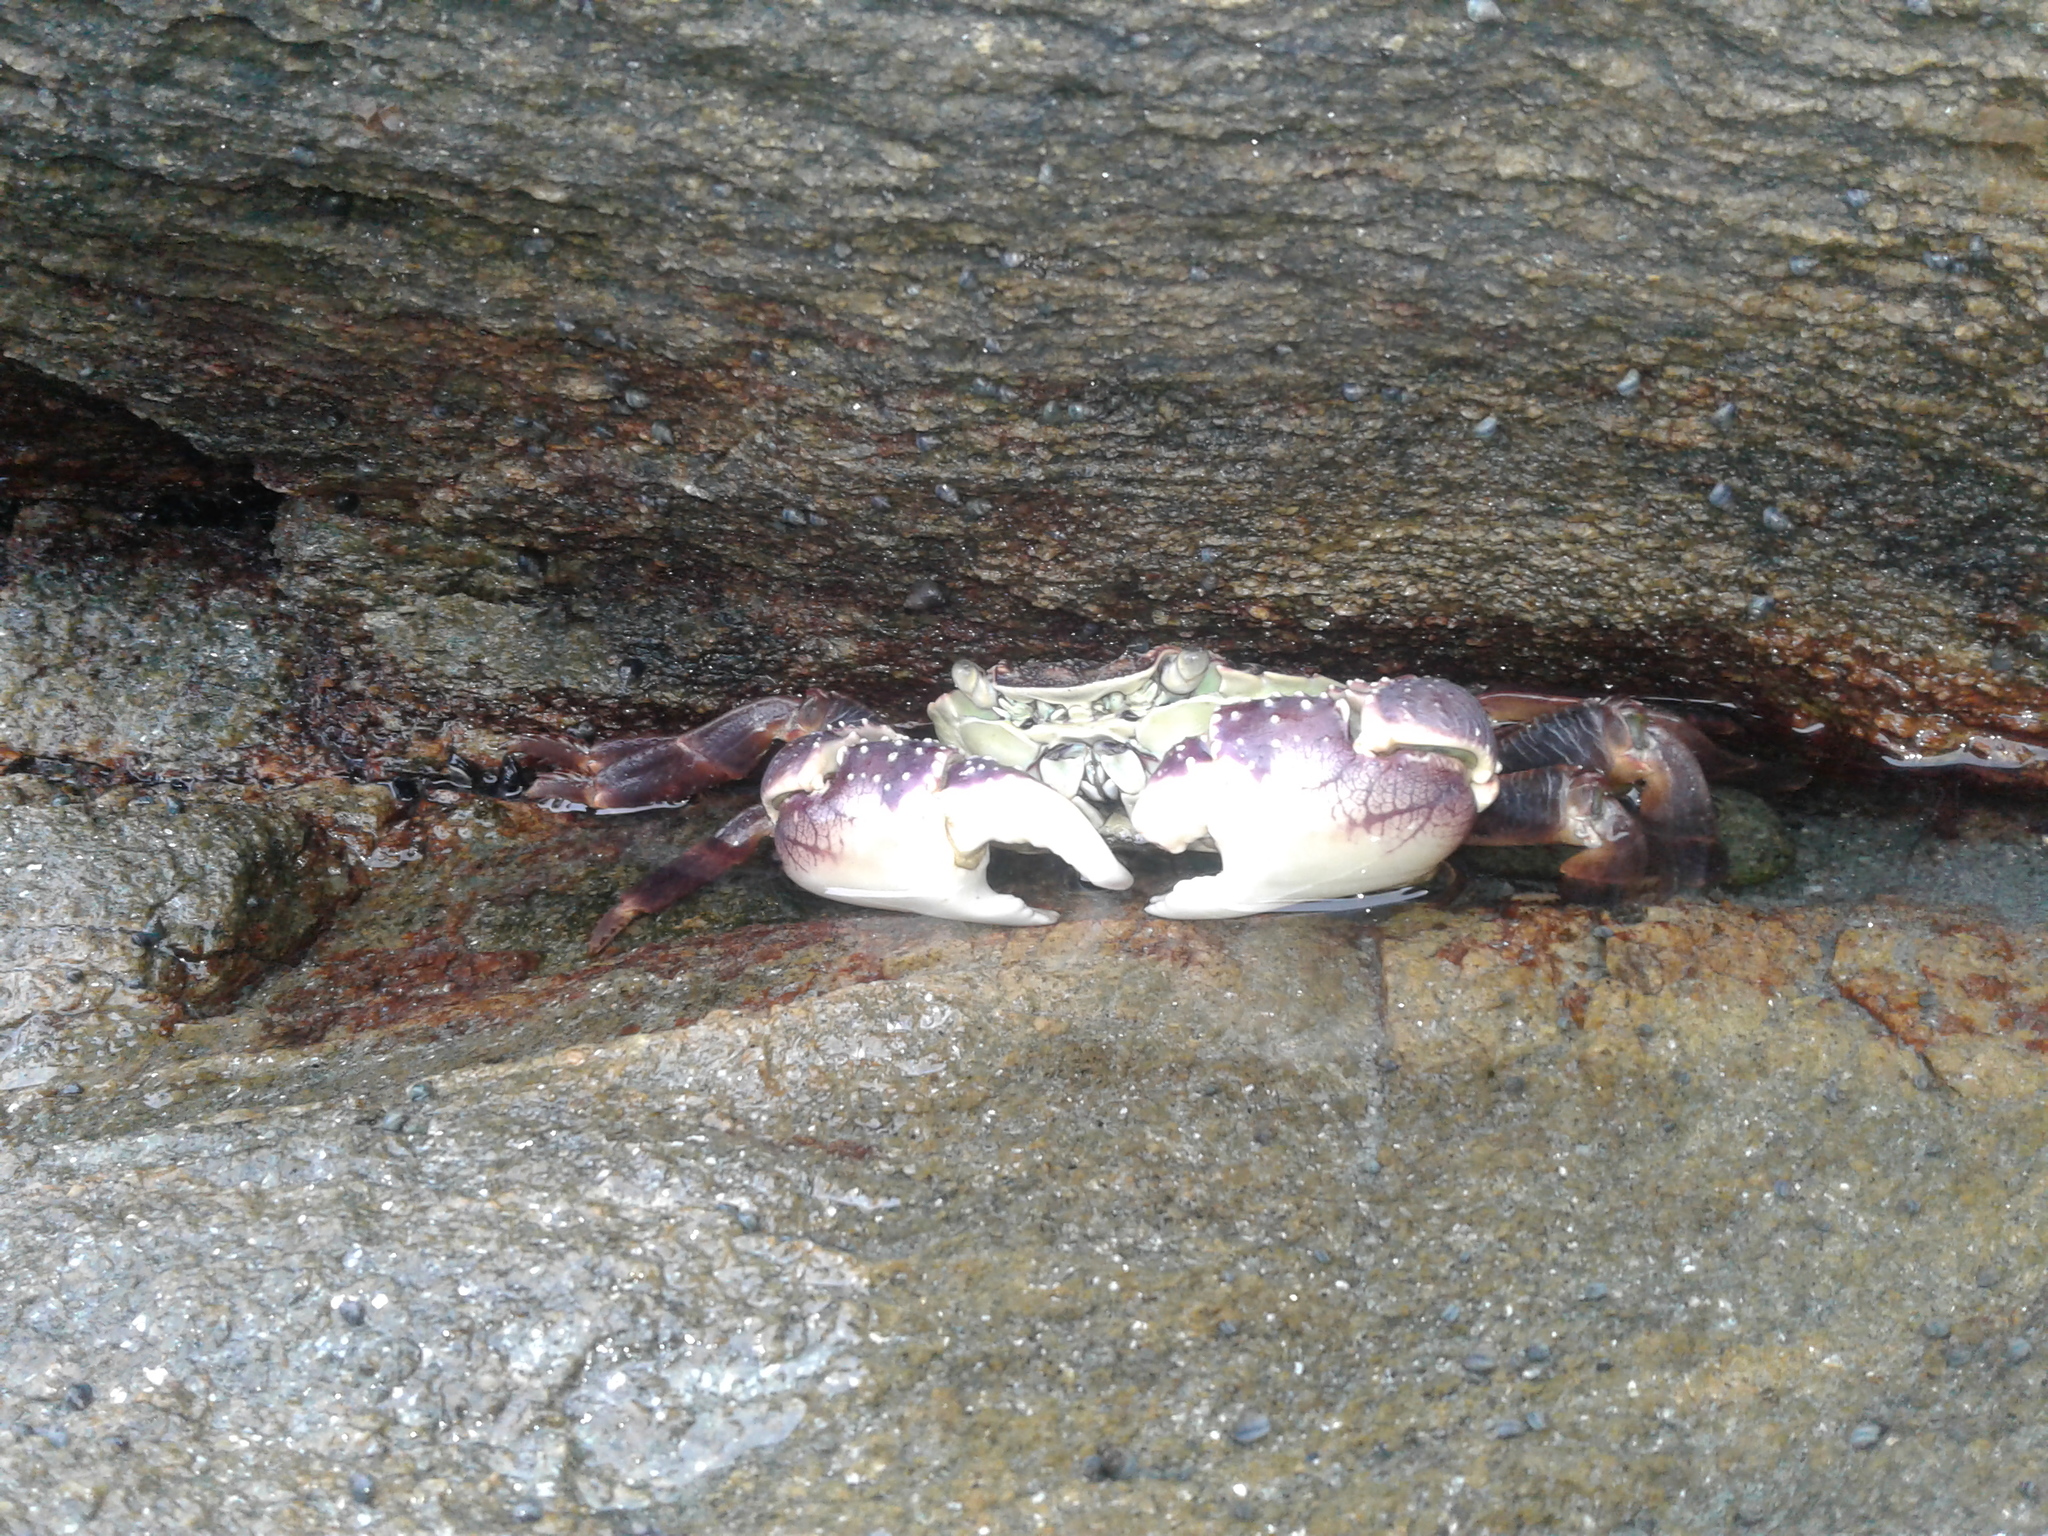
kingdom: Animalia
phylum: Arthropoda
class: Malacostraca
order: Decapoda
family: Grapsidae
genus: Leptograpsus
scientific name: Leptograpsus variegatus
